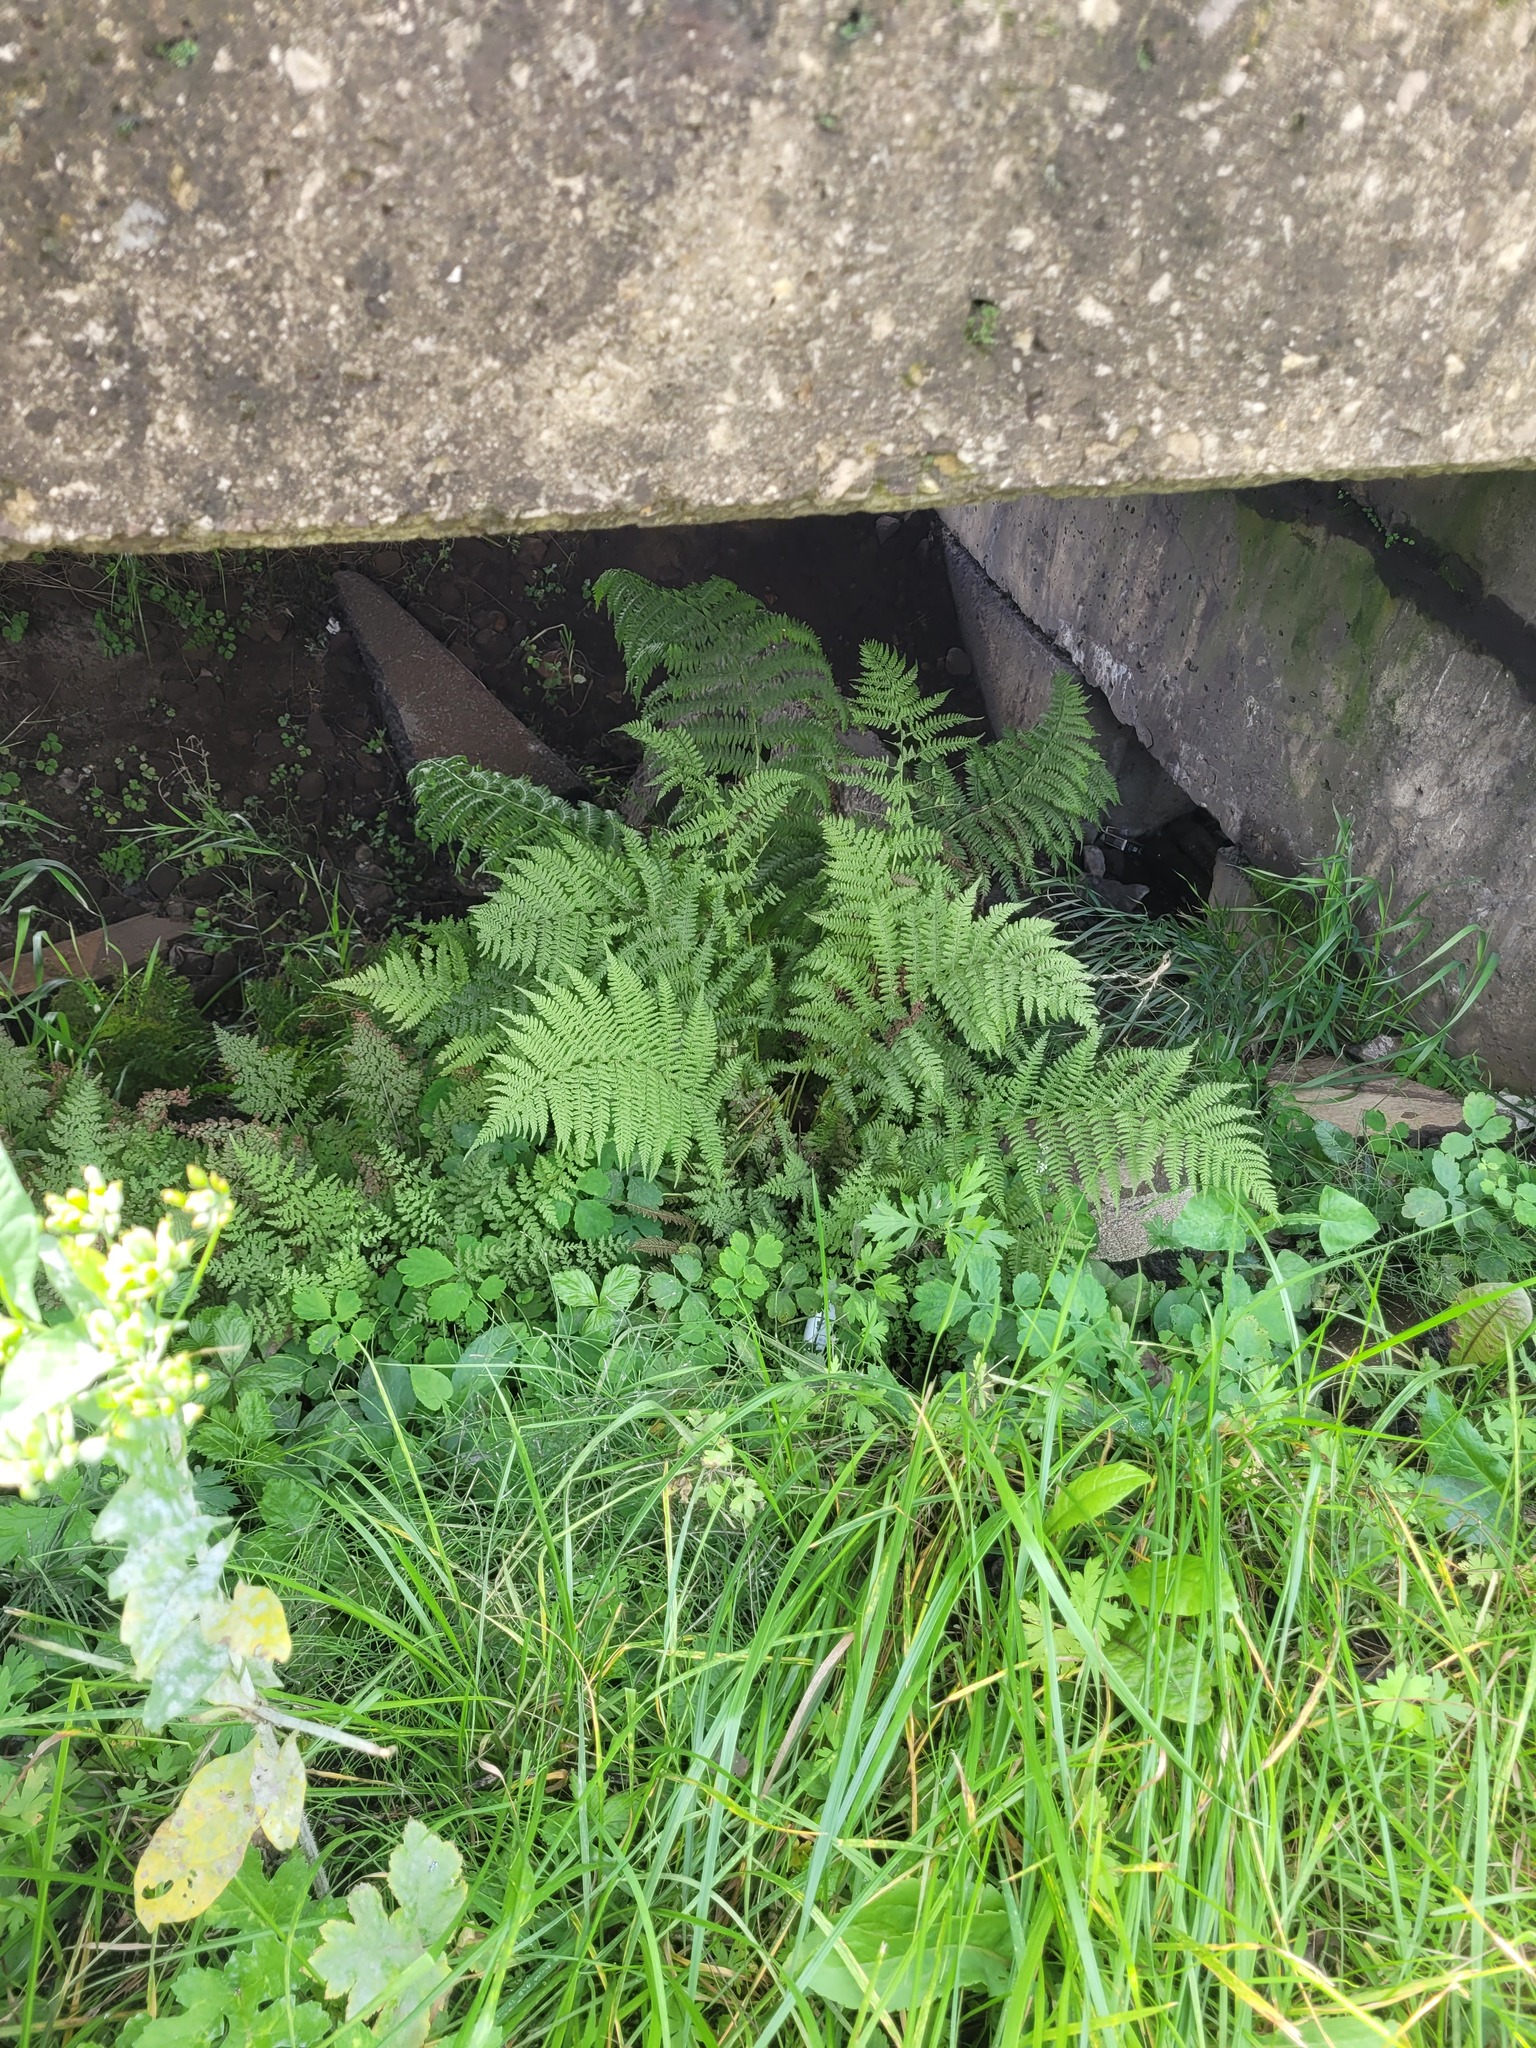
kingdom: Plantae
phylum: Tracheophyta
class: Polypodiopsida
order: Polypodiales
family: Athyriaceae
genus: Athyrium
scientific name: Athyrium filix-femina
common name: Lady fern
